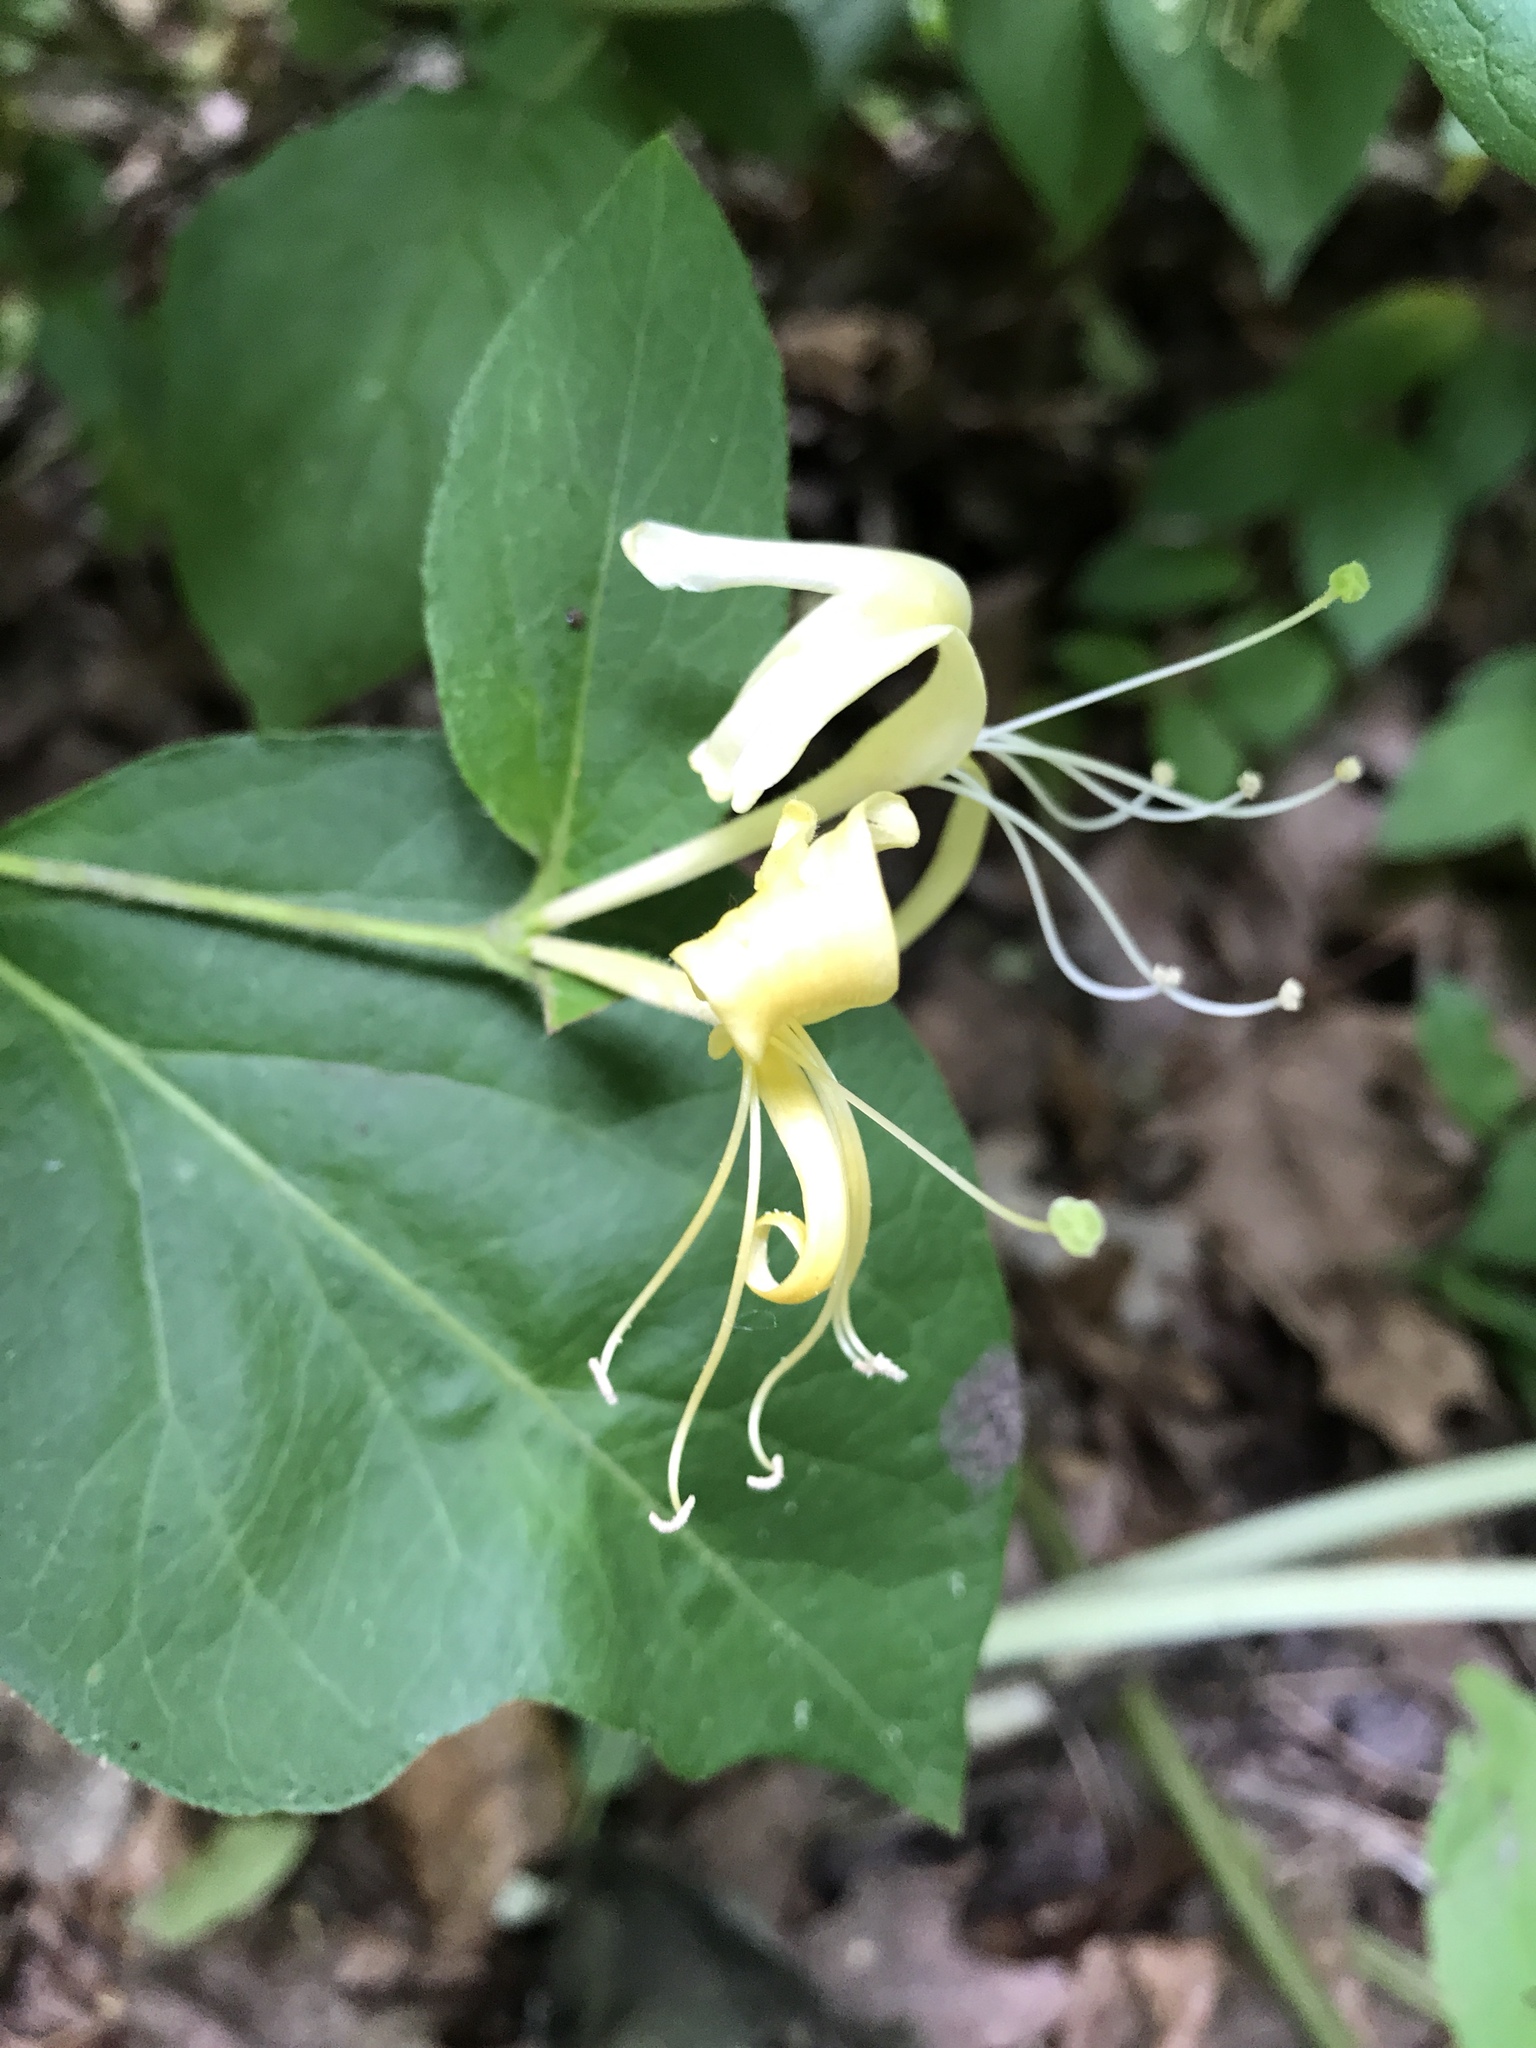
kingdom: Plantae
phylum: Tracheophyta
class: Magnoliopsida
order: Dipsacales
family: Caprifoliaceae
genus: Lonicera
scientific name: Lonicera japonica
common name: Japanese honeysuckle
